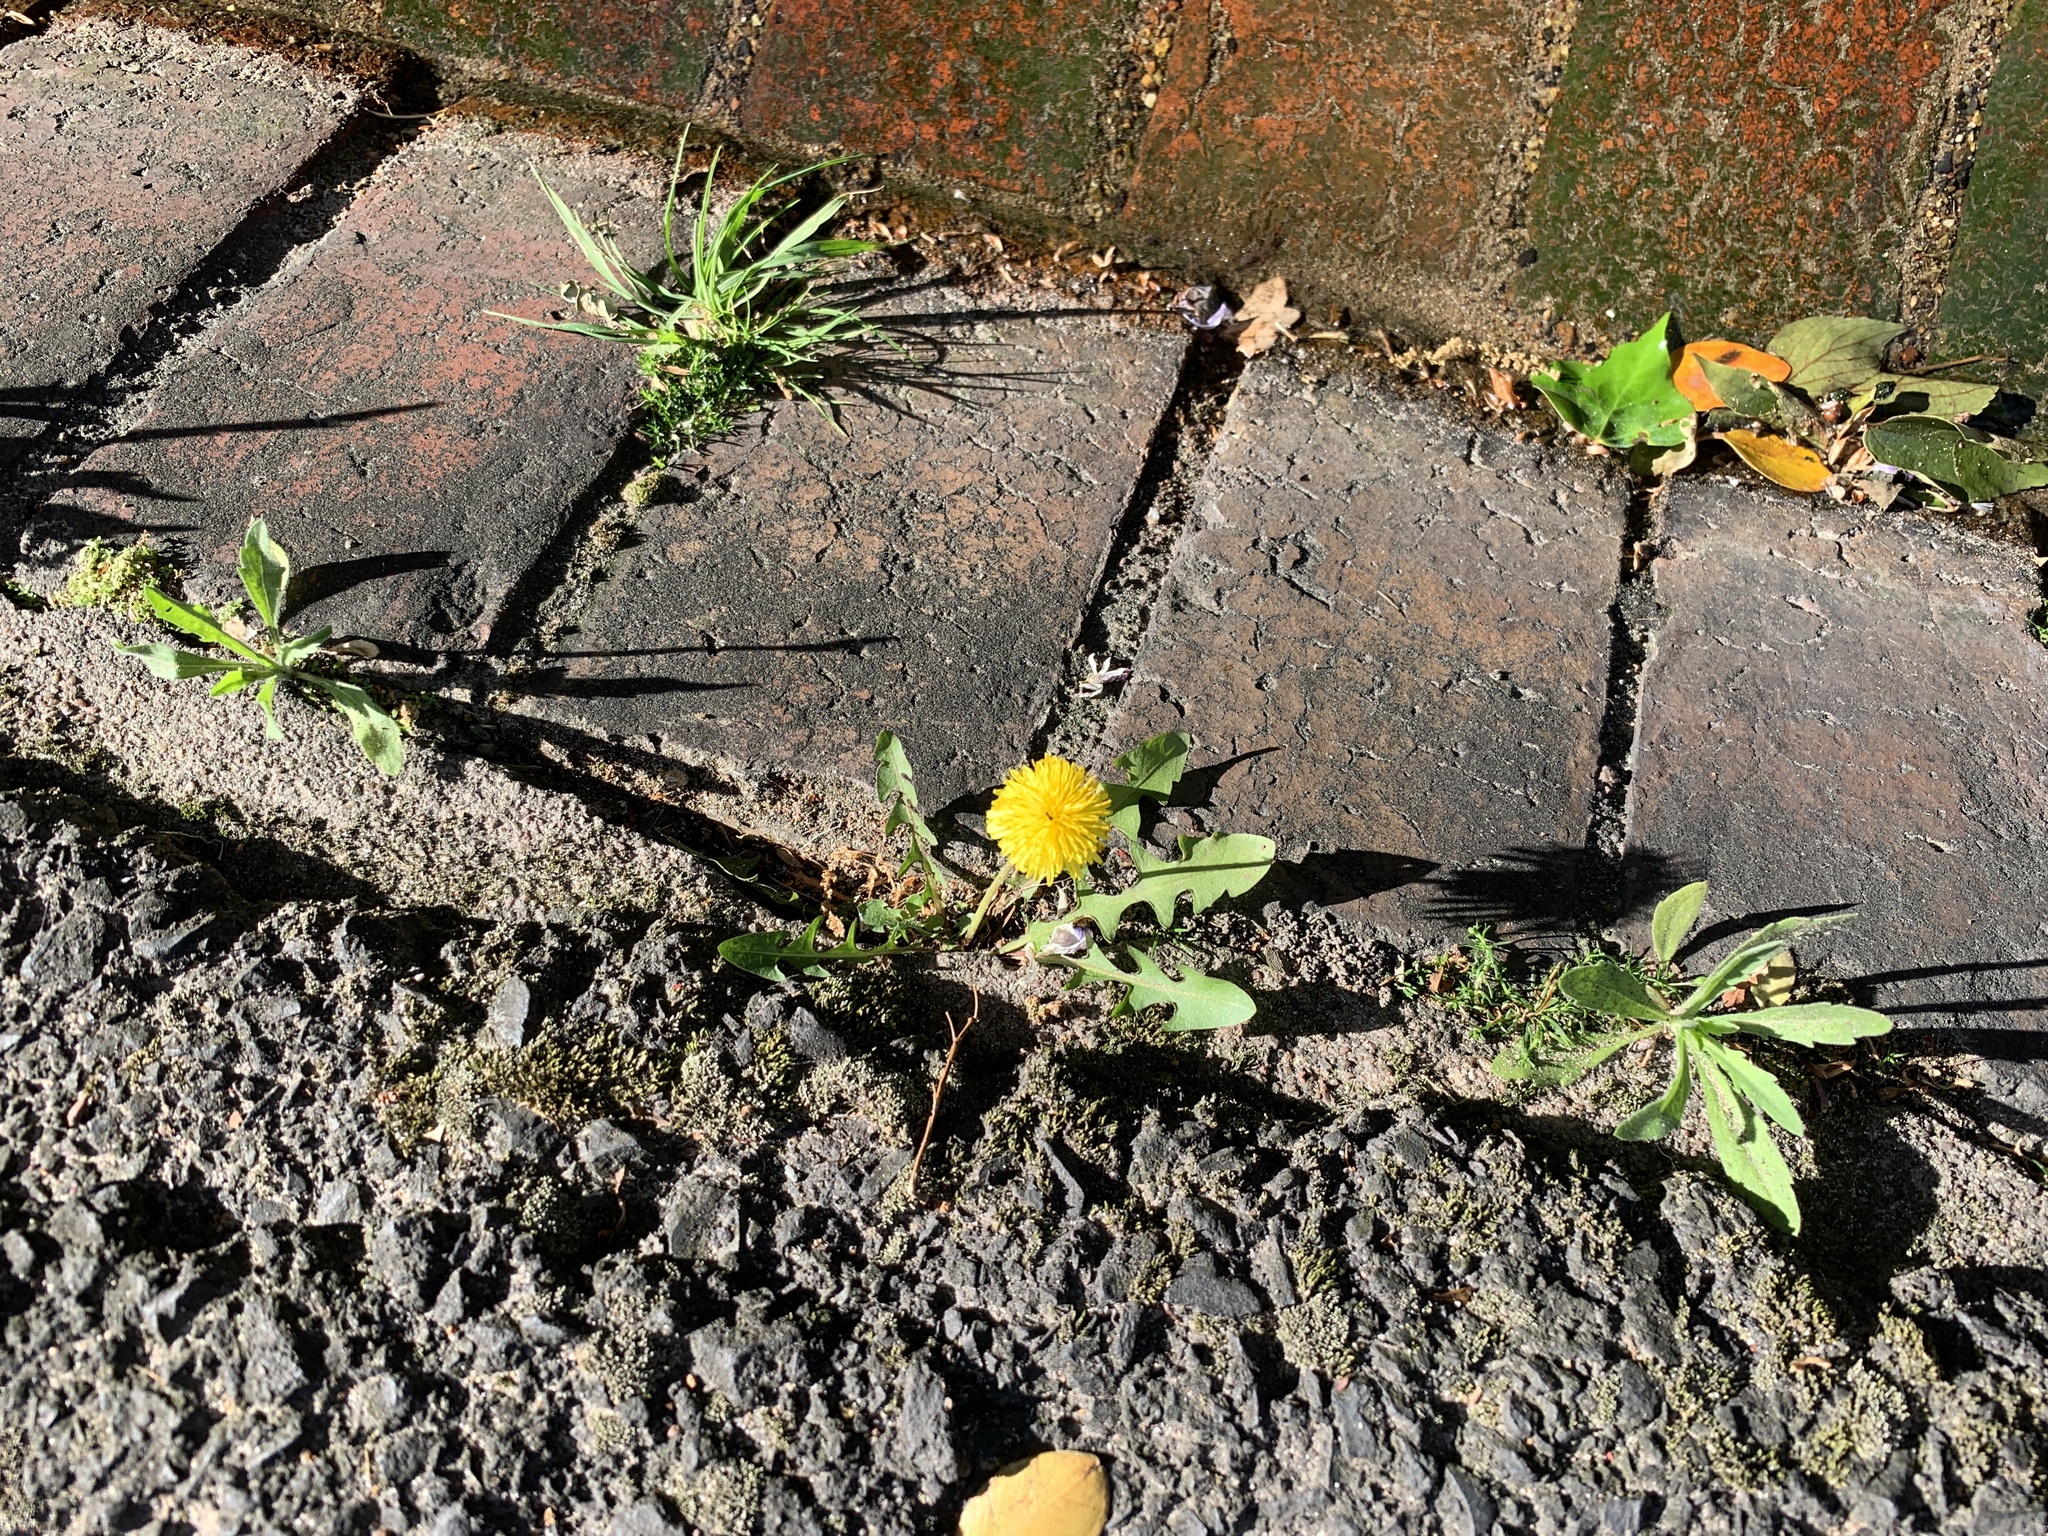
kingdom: Plantae
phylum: Tracheophyta
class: Magnoliopsida
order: Asterales
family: Asteraceae
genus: Taraxacum
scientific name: Taraxacum officinale
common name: Common dandelion
